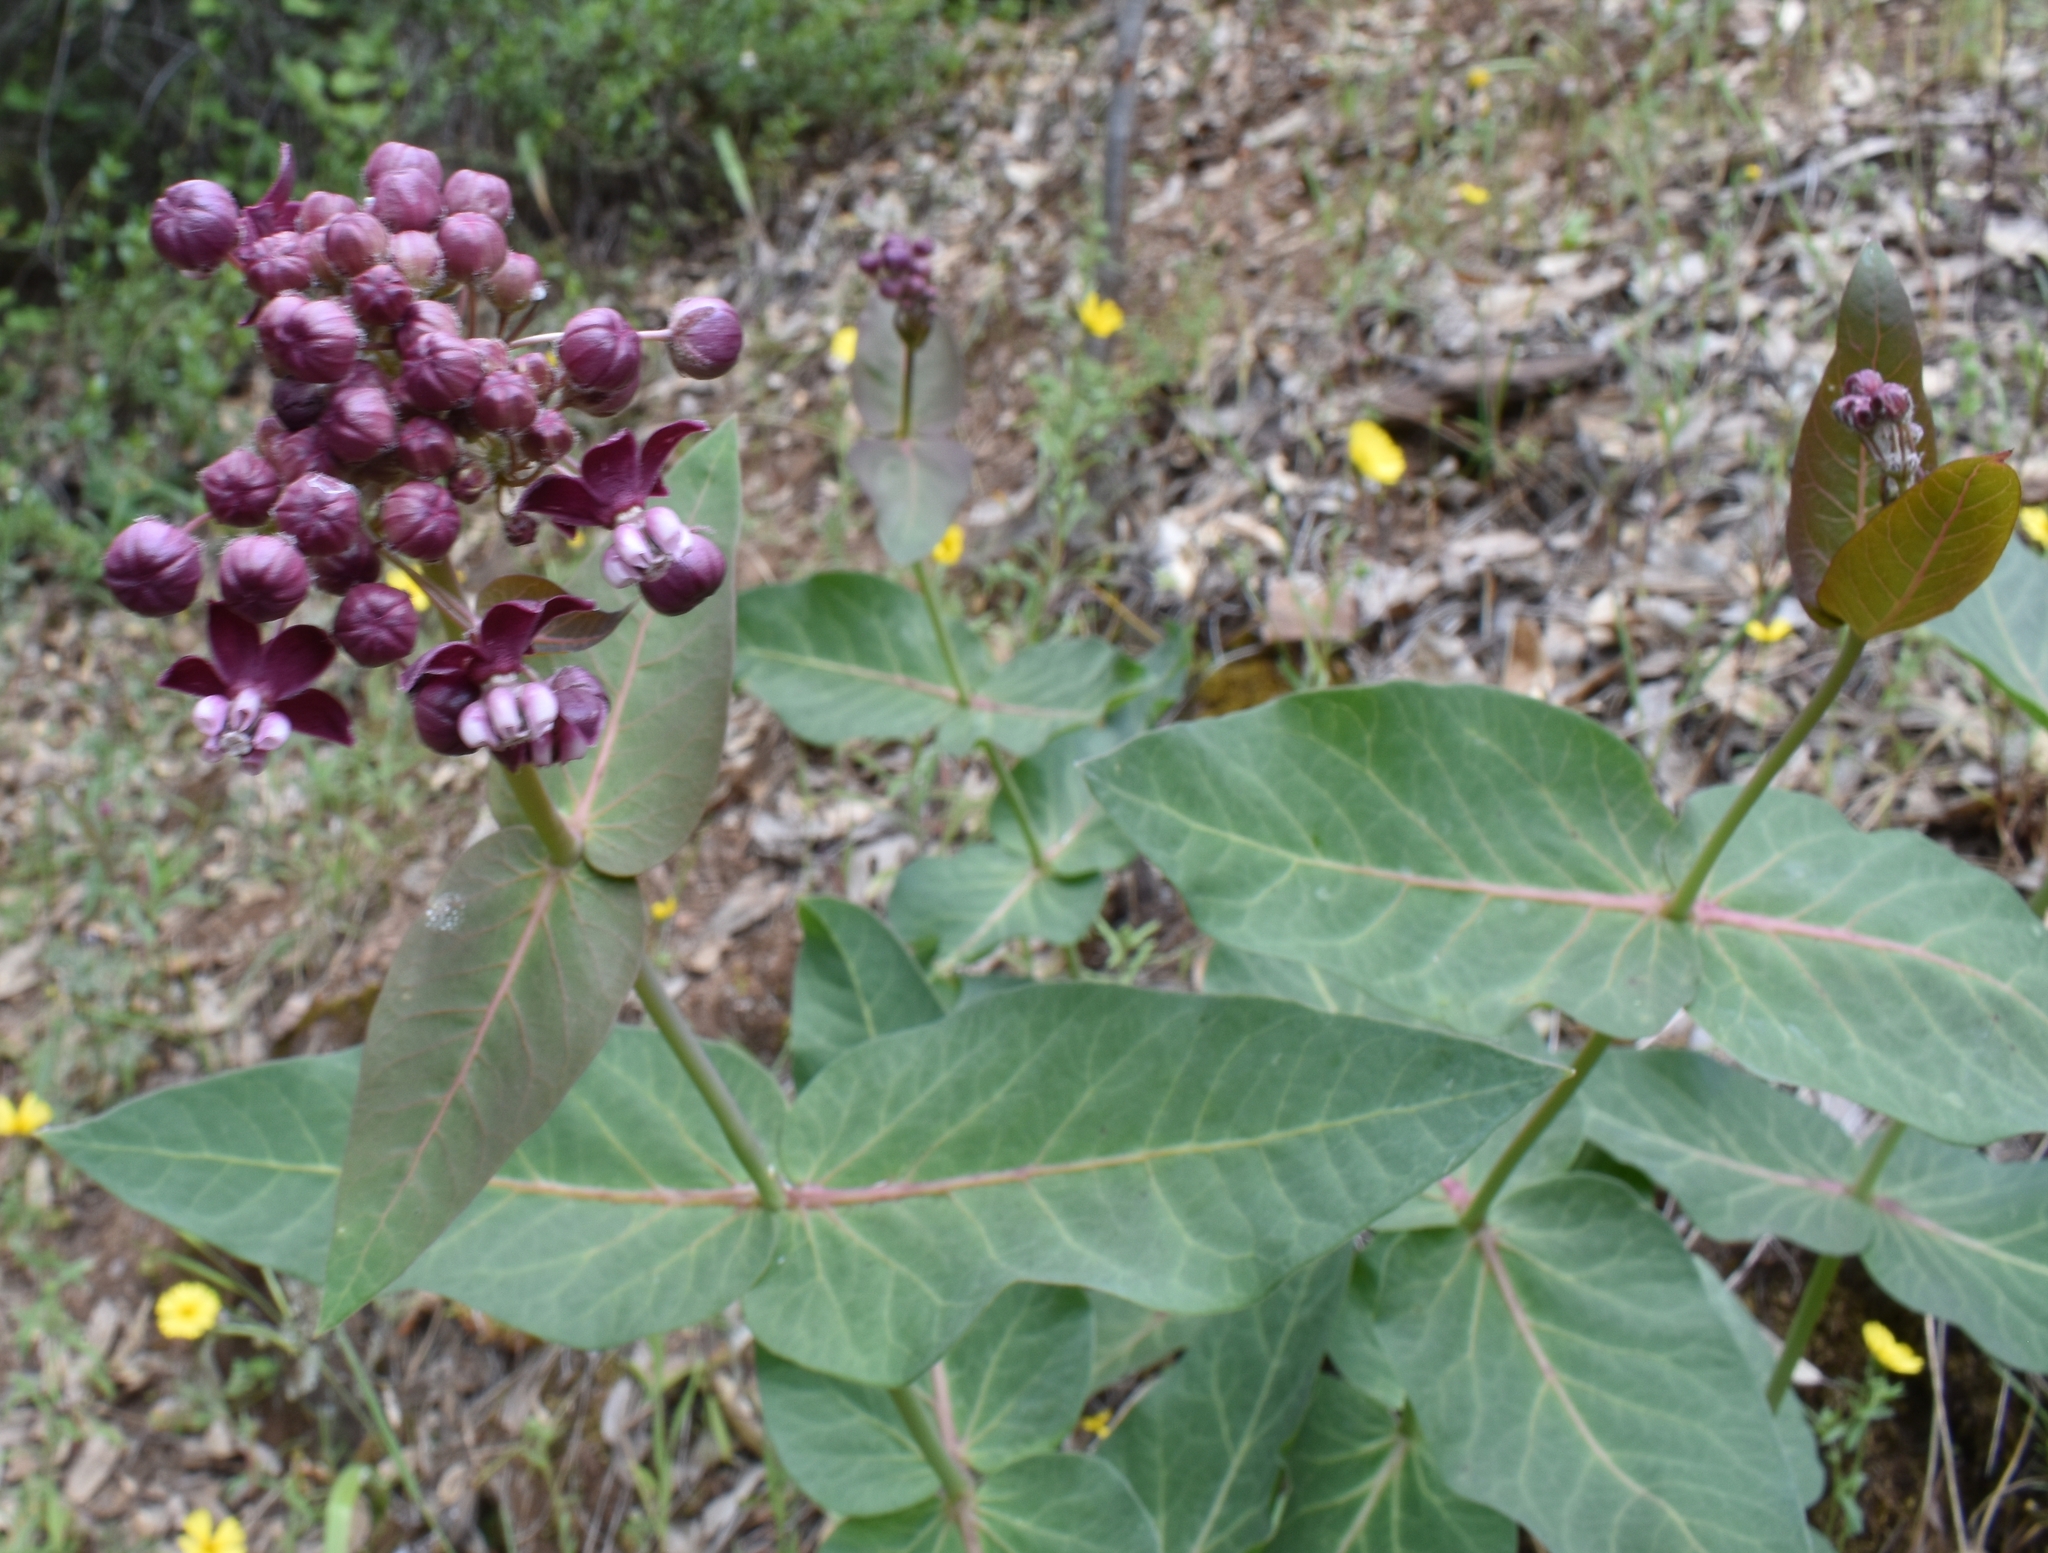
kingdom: Plantae
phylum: Tracheophyta
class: Magnoliopsida
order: Gentianales
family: Apocynaceae
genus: Asclepias
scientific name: Asclepias cordifolia
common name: Purple milkweed
